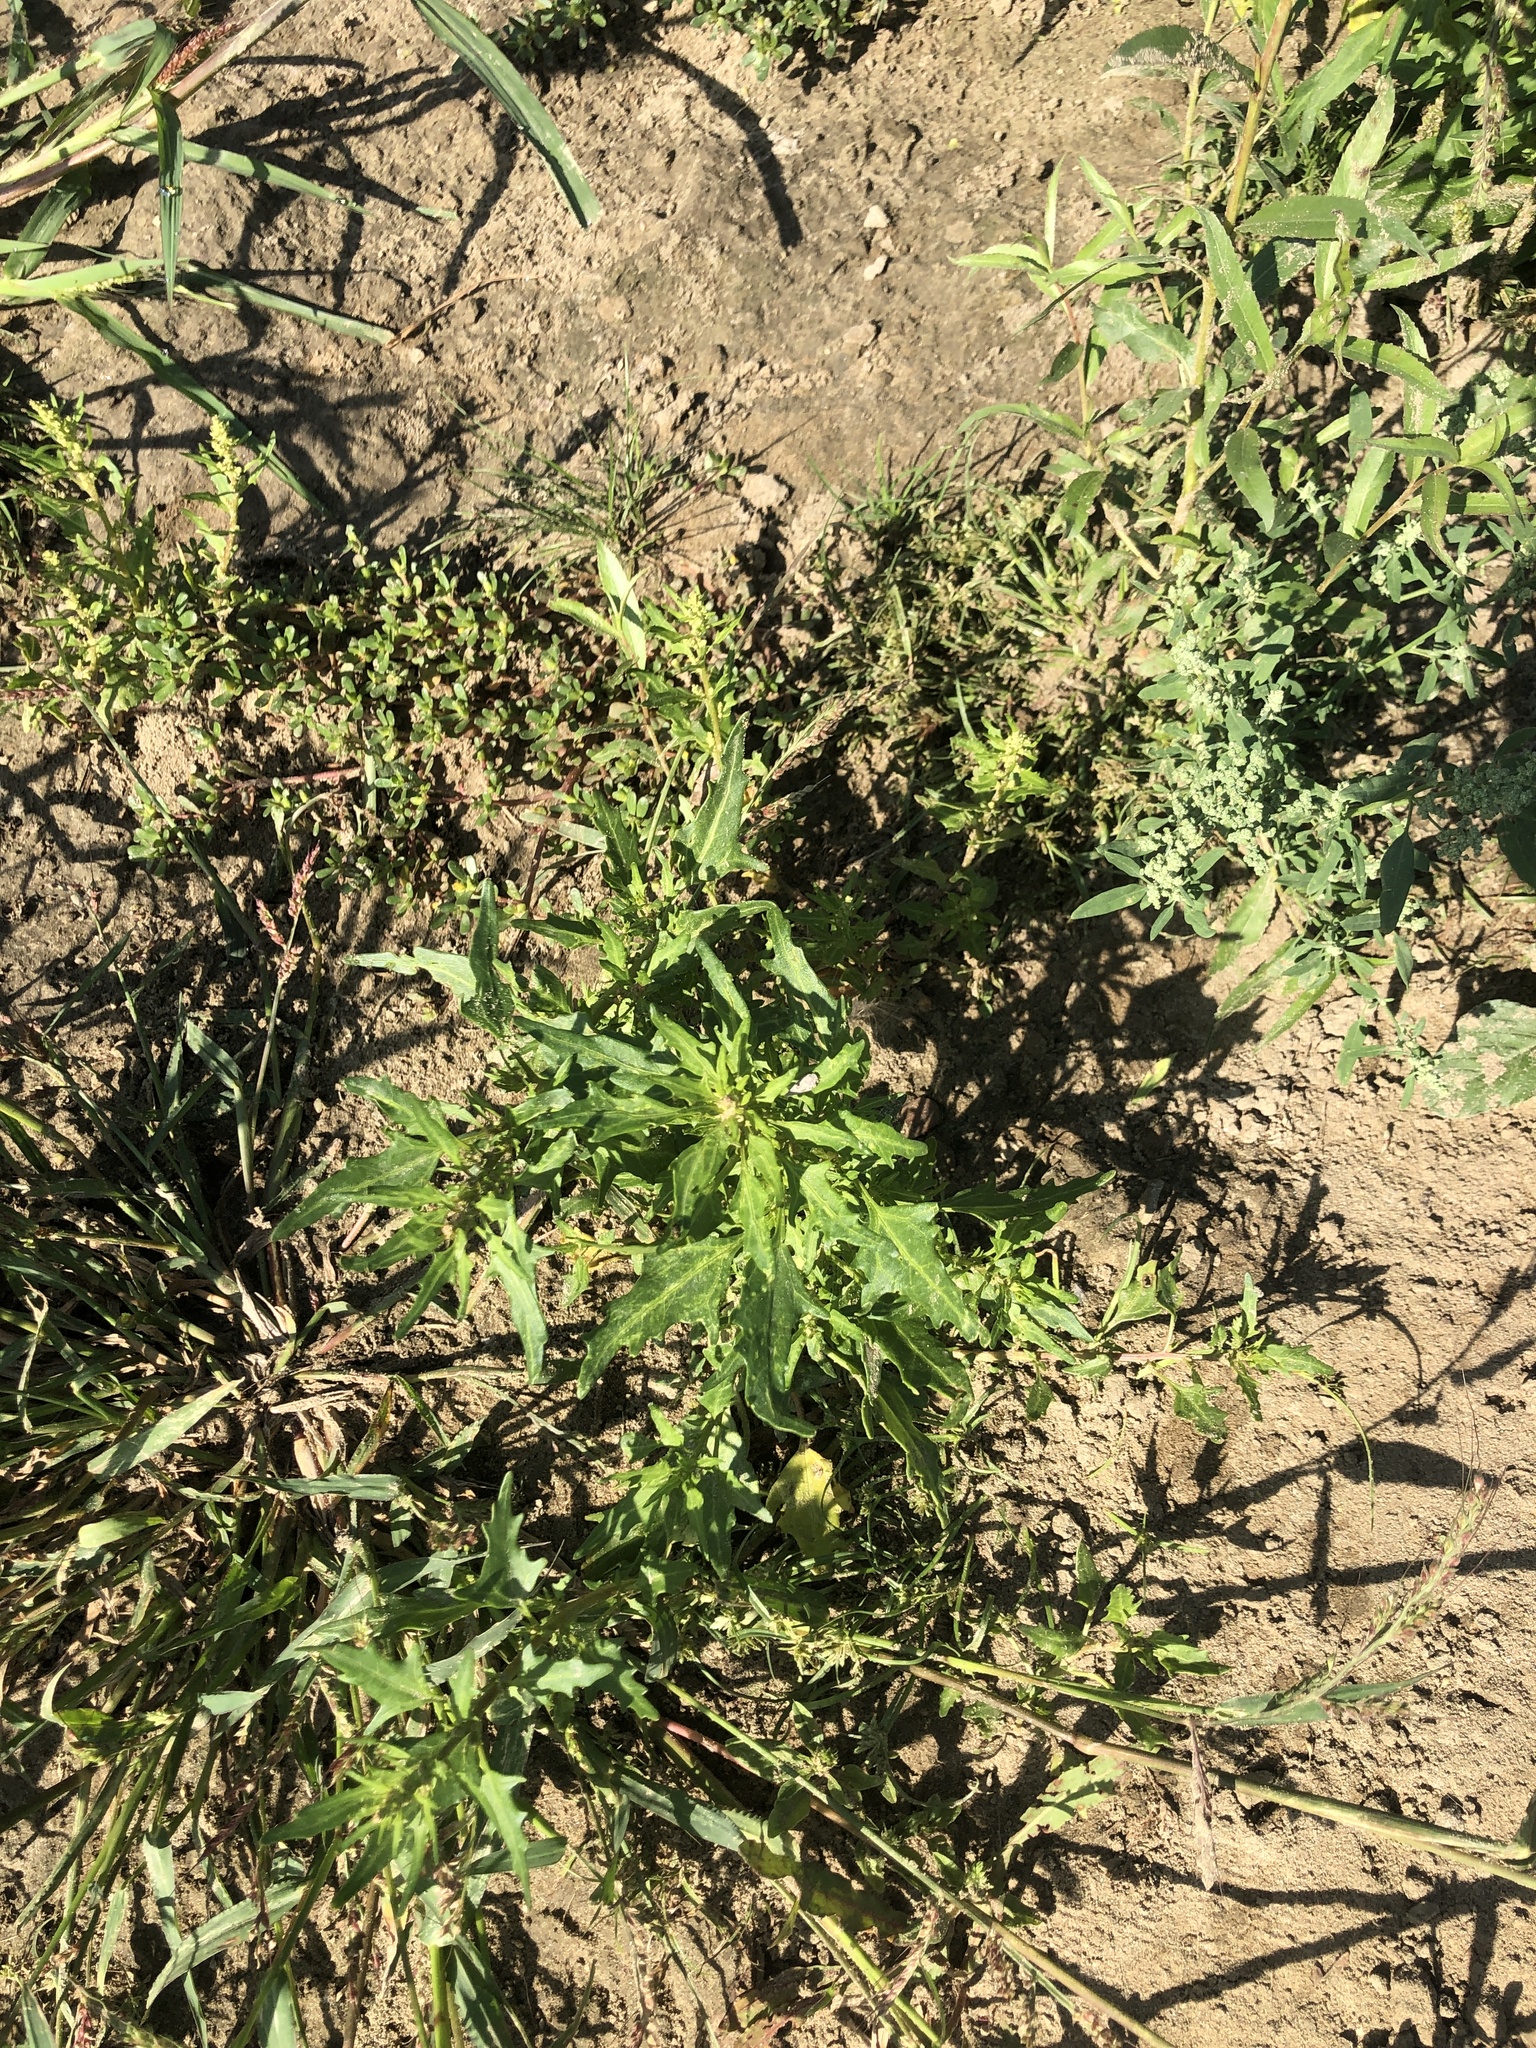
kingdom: Plantae
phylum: Tracheophyta
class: Magnoliopsida
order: Caryophyllales
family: Amaranthaceae
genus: Oxybasis
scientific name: Oxybasis rubra
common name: Red goosefoot
